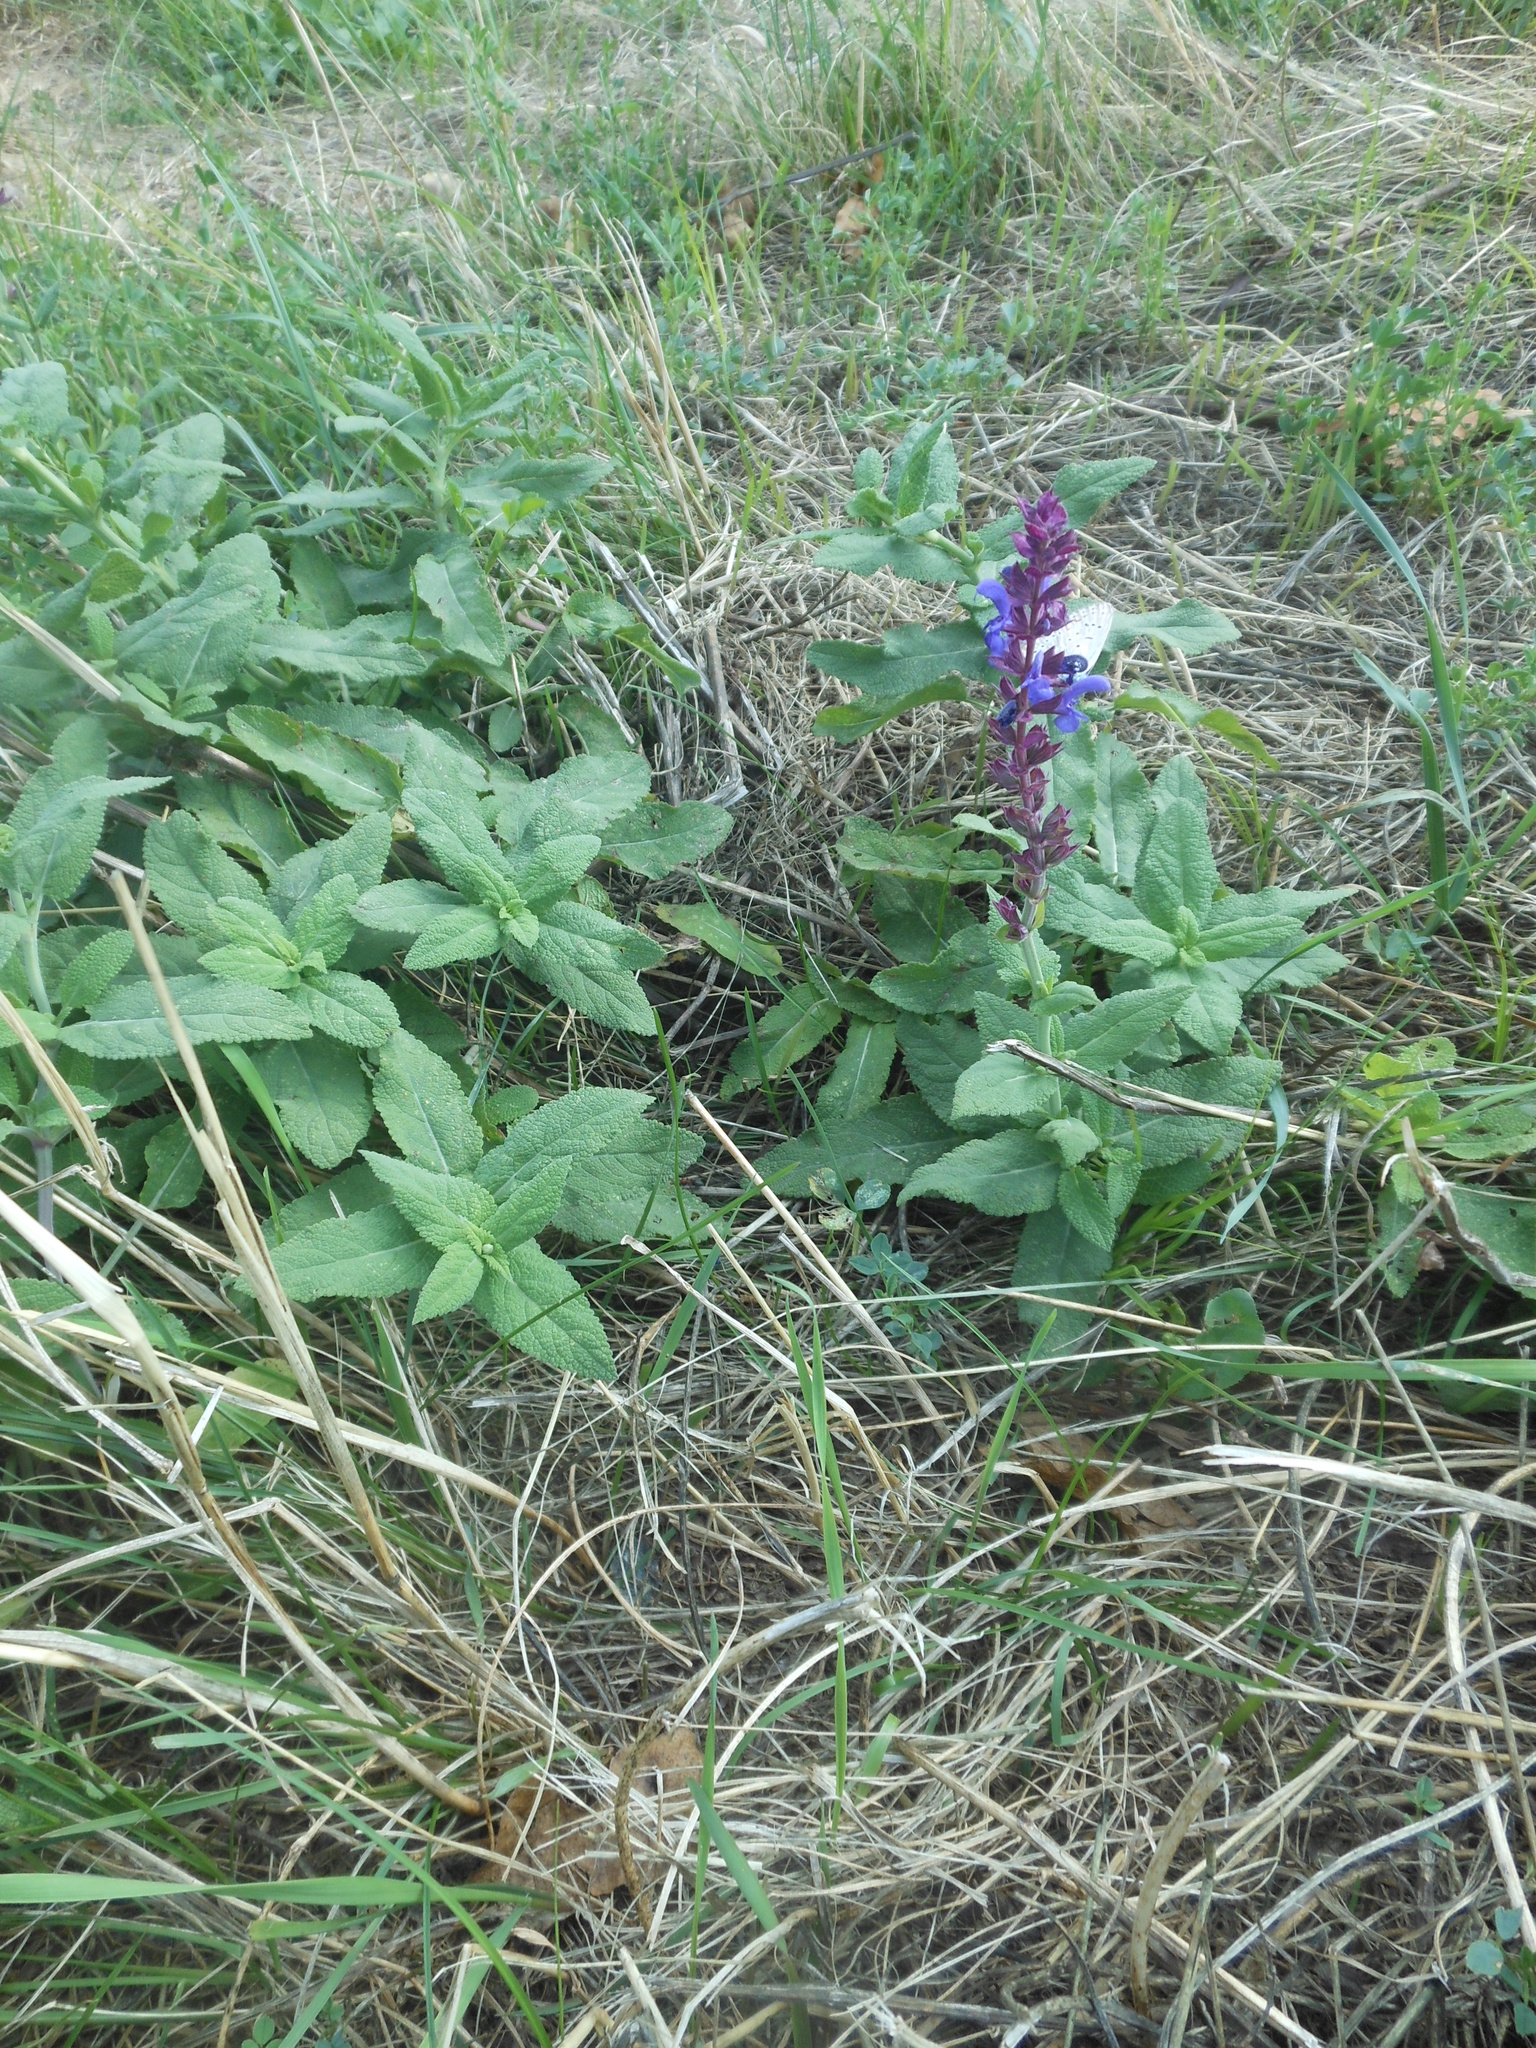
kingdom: Plantae
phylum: Tracheophyta
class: Magnoliopsida
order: Lamiales
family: Lamiaceae
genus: Salvia
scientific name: Salvia nemorosa
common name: Balkan clary
